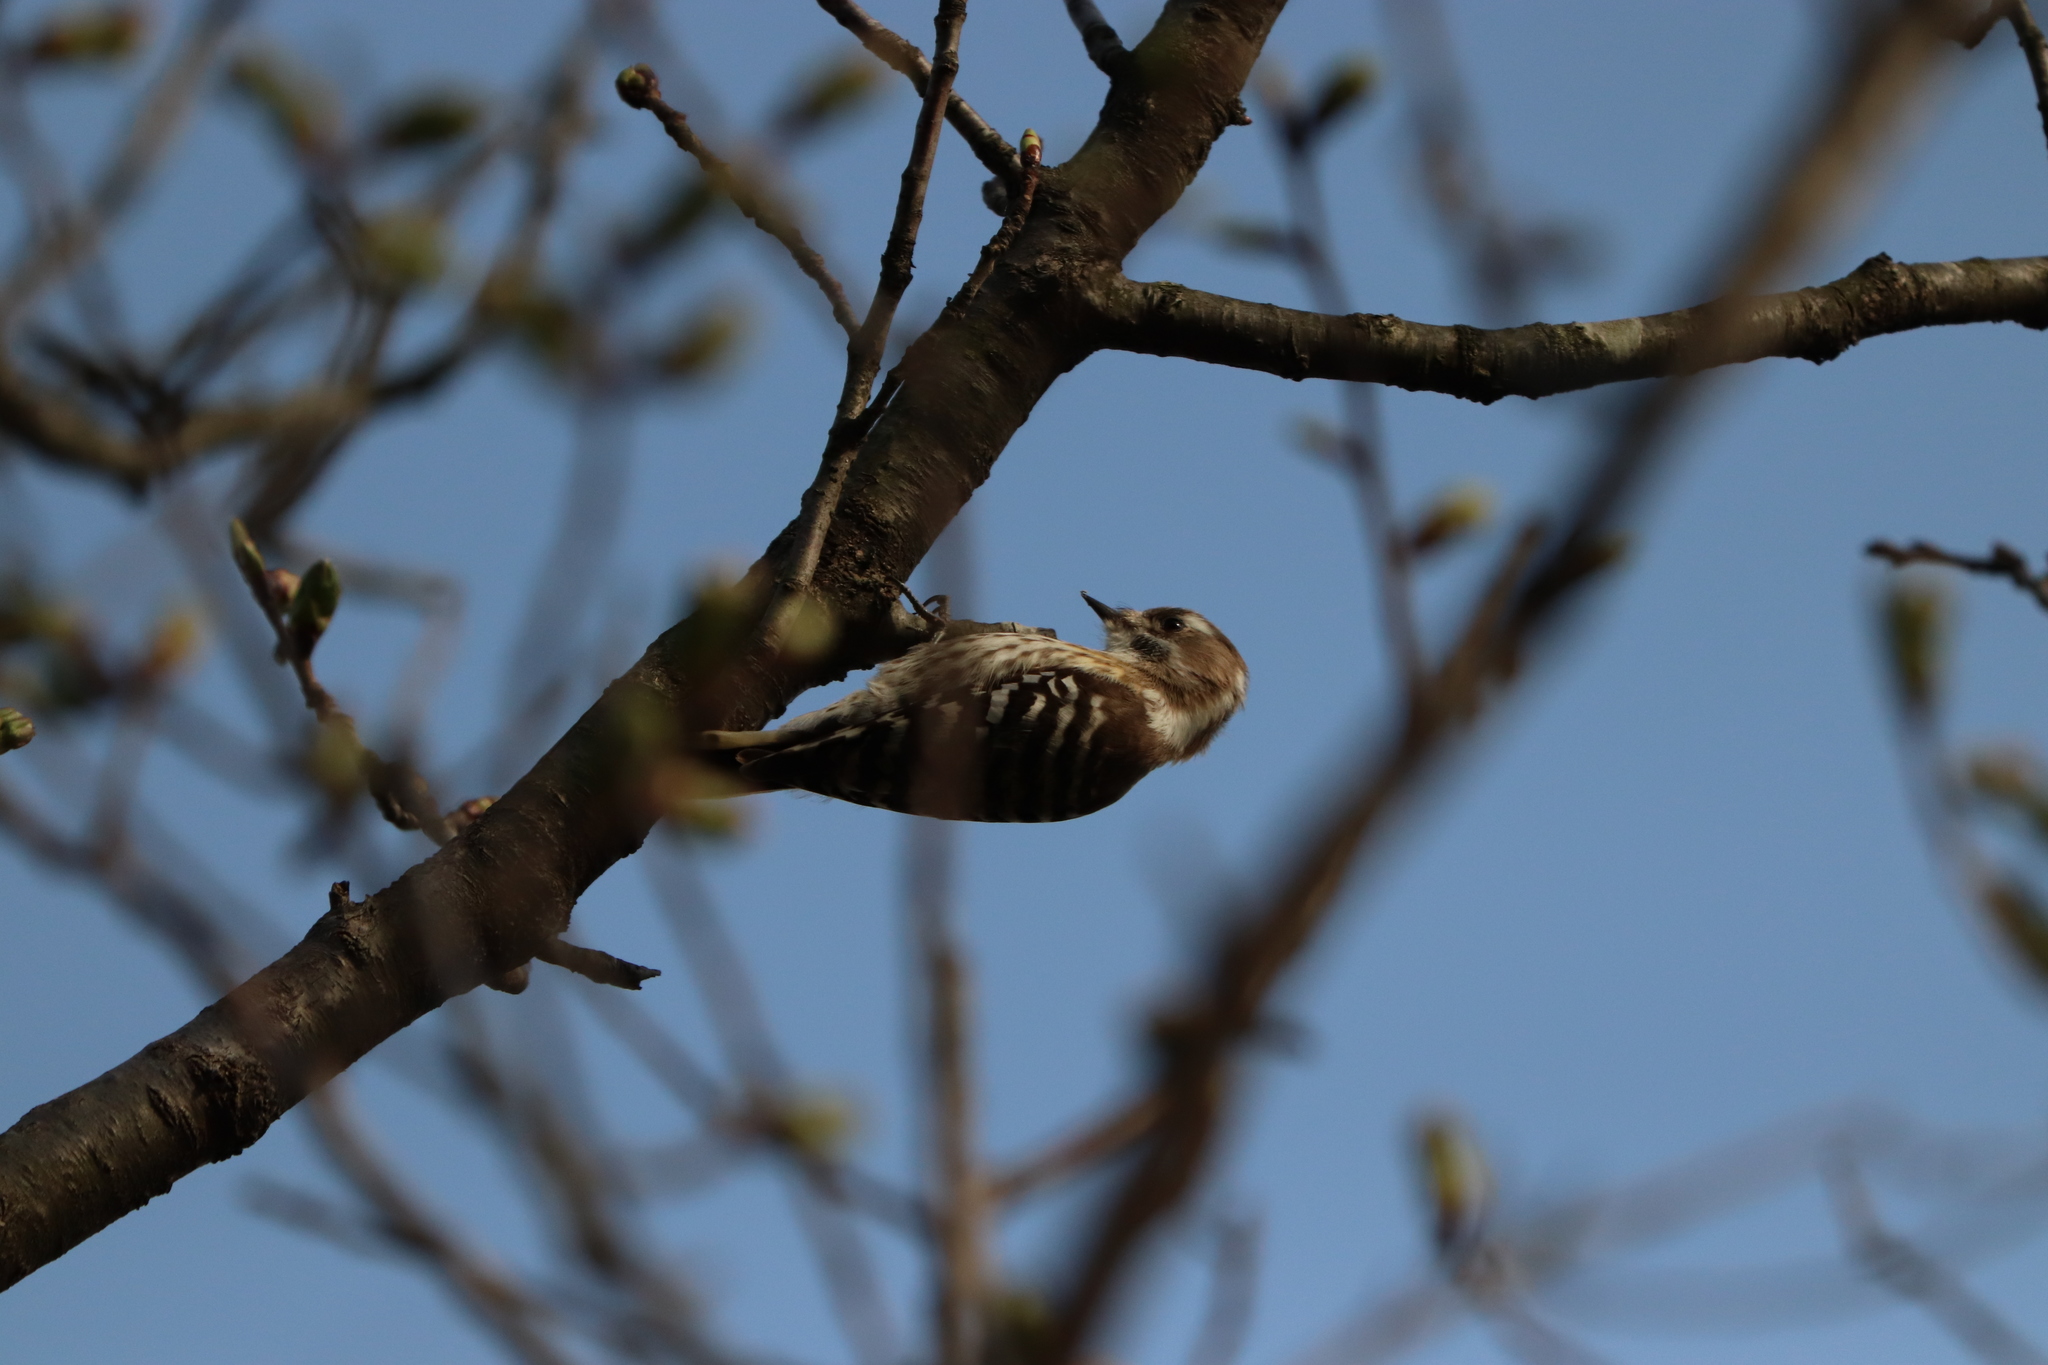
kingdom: Animalia
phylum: Chordata
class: Aves
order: Piciformes
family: Picidae
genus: Yungipicus
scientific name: Yungipicus kizuki
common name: Japanese pygmy woodpecker
